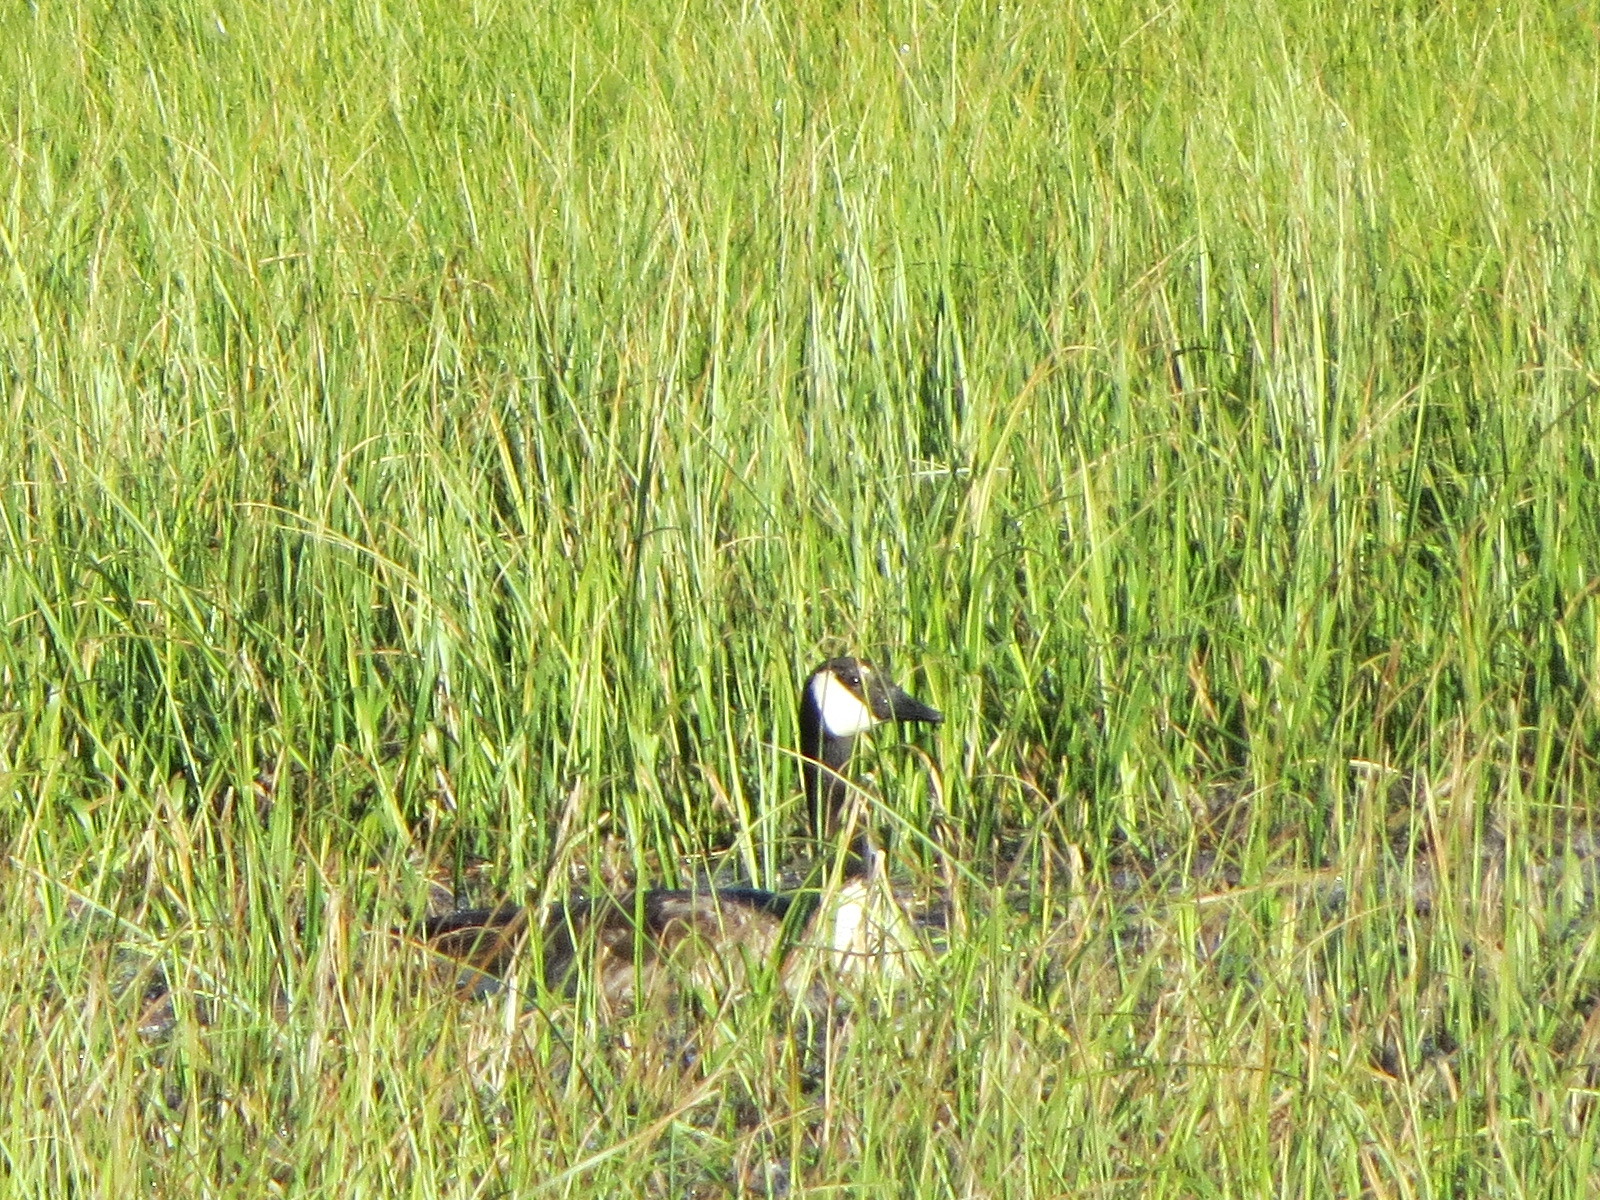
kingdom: Animalia
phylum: Chordata
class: Aves
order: Anseriformes
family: Anatidae
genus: Branta
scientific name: Branta canadensis
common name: Canada goose
